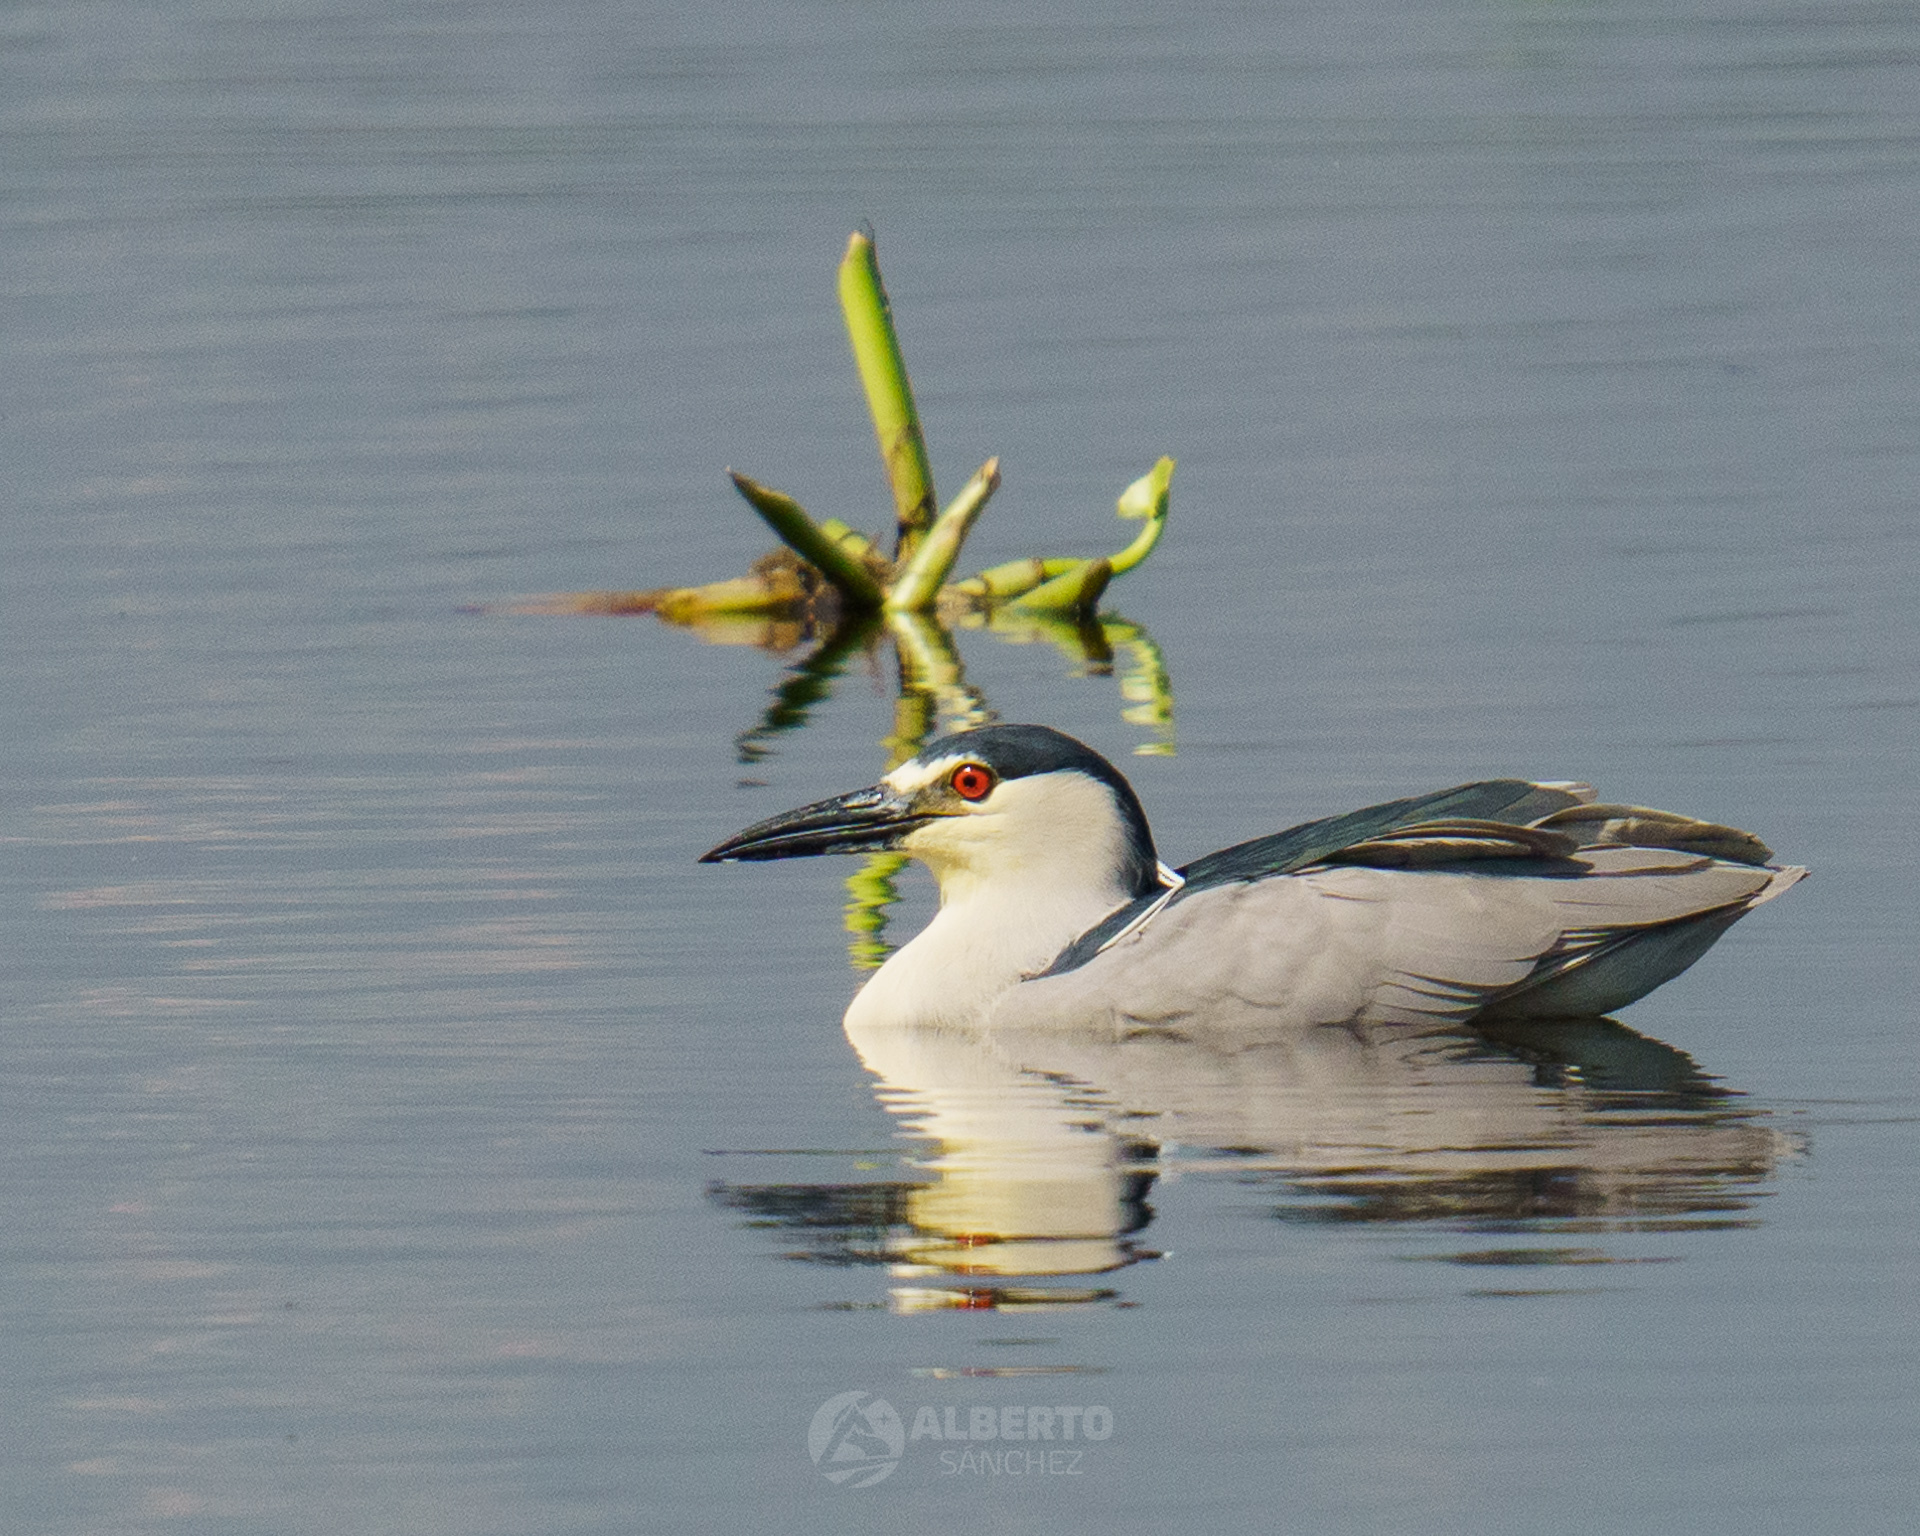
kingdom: Animalia
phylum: Chordata
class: Aves
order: Pelecaniformes
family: Ardeidae
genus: Nycticorax
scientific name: Nycticorax nycticorax
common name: Black-crowned night heron
